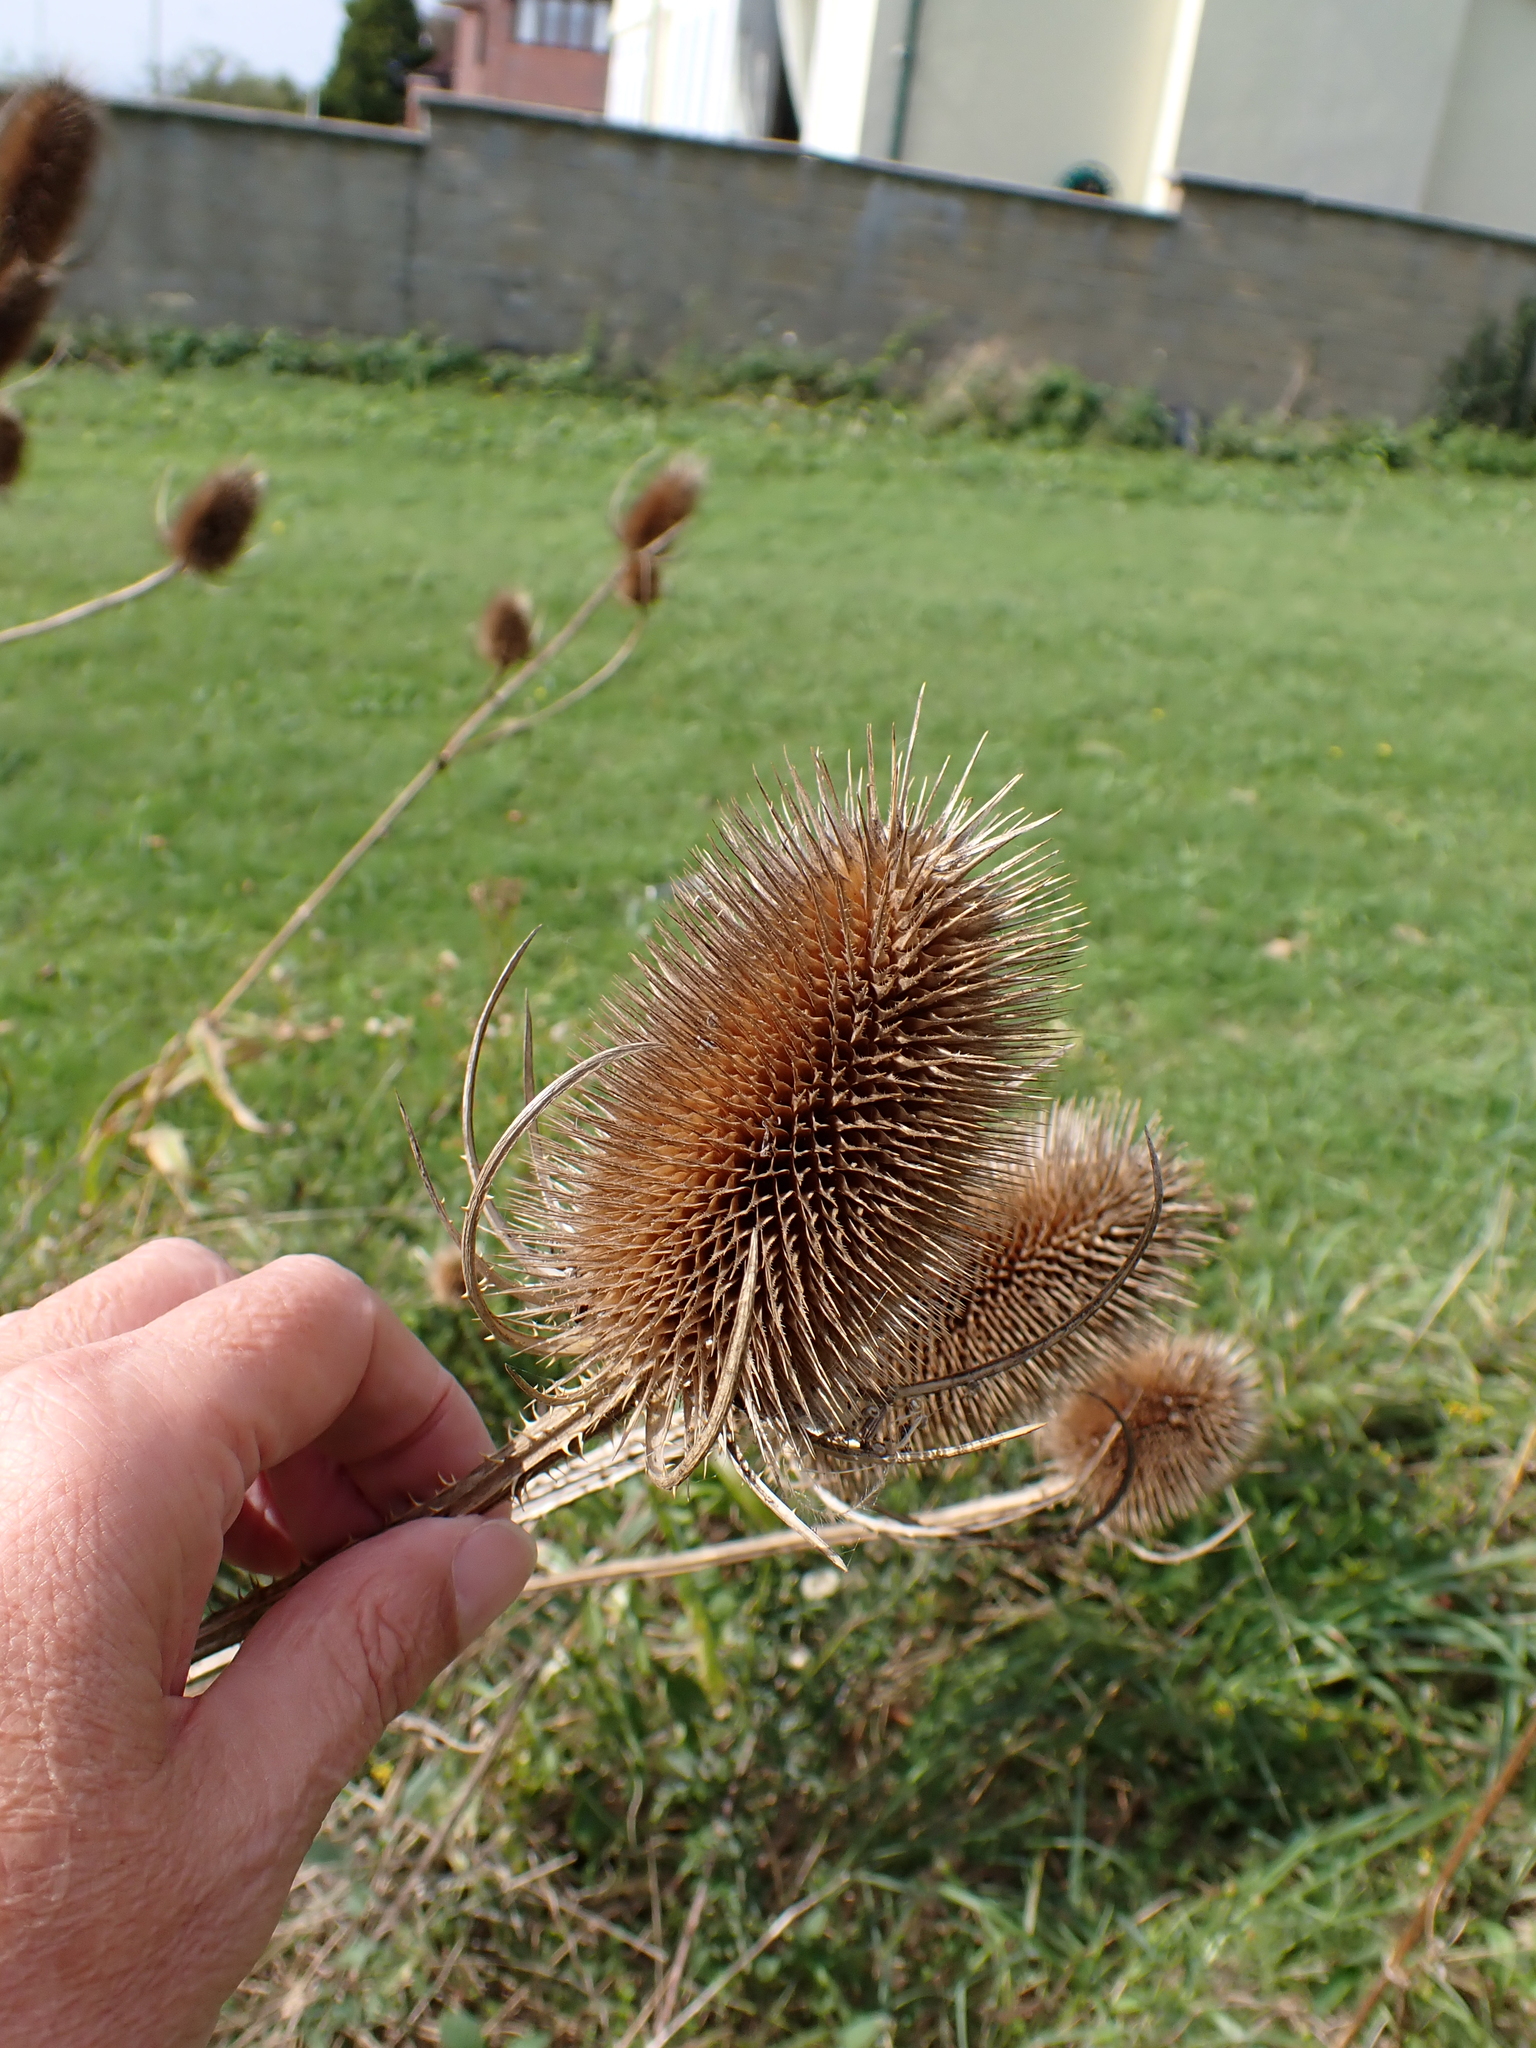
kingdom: Plantae
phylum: Tracheophyta
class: Magnoliopsida
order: Dipsacales
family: Caprifoliaceae
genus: Dipsacus
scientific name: Dipsacus fullonum
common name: Teasel
